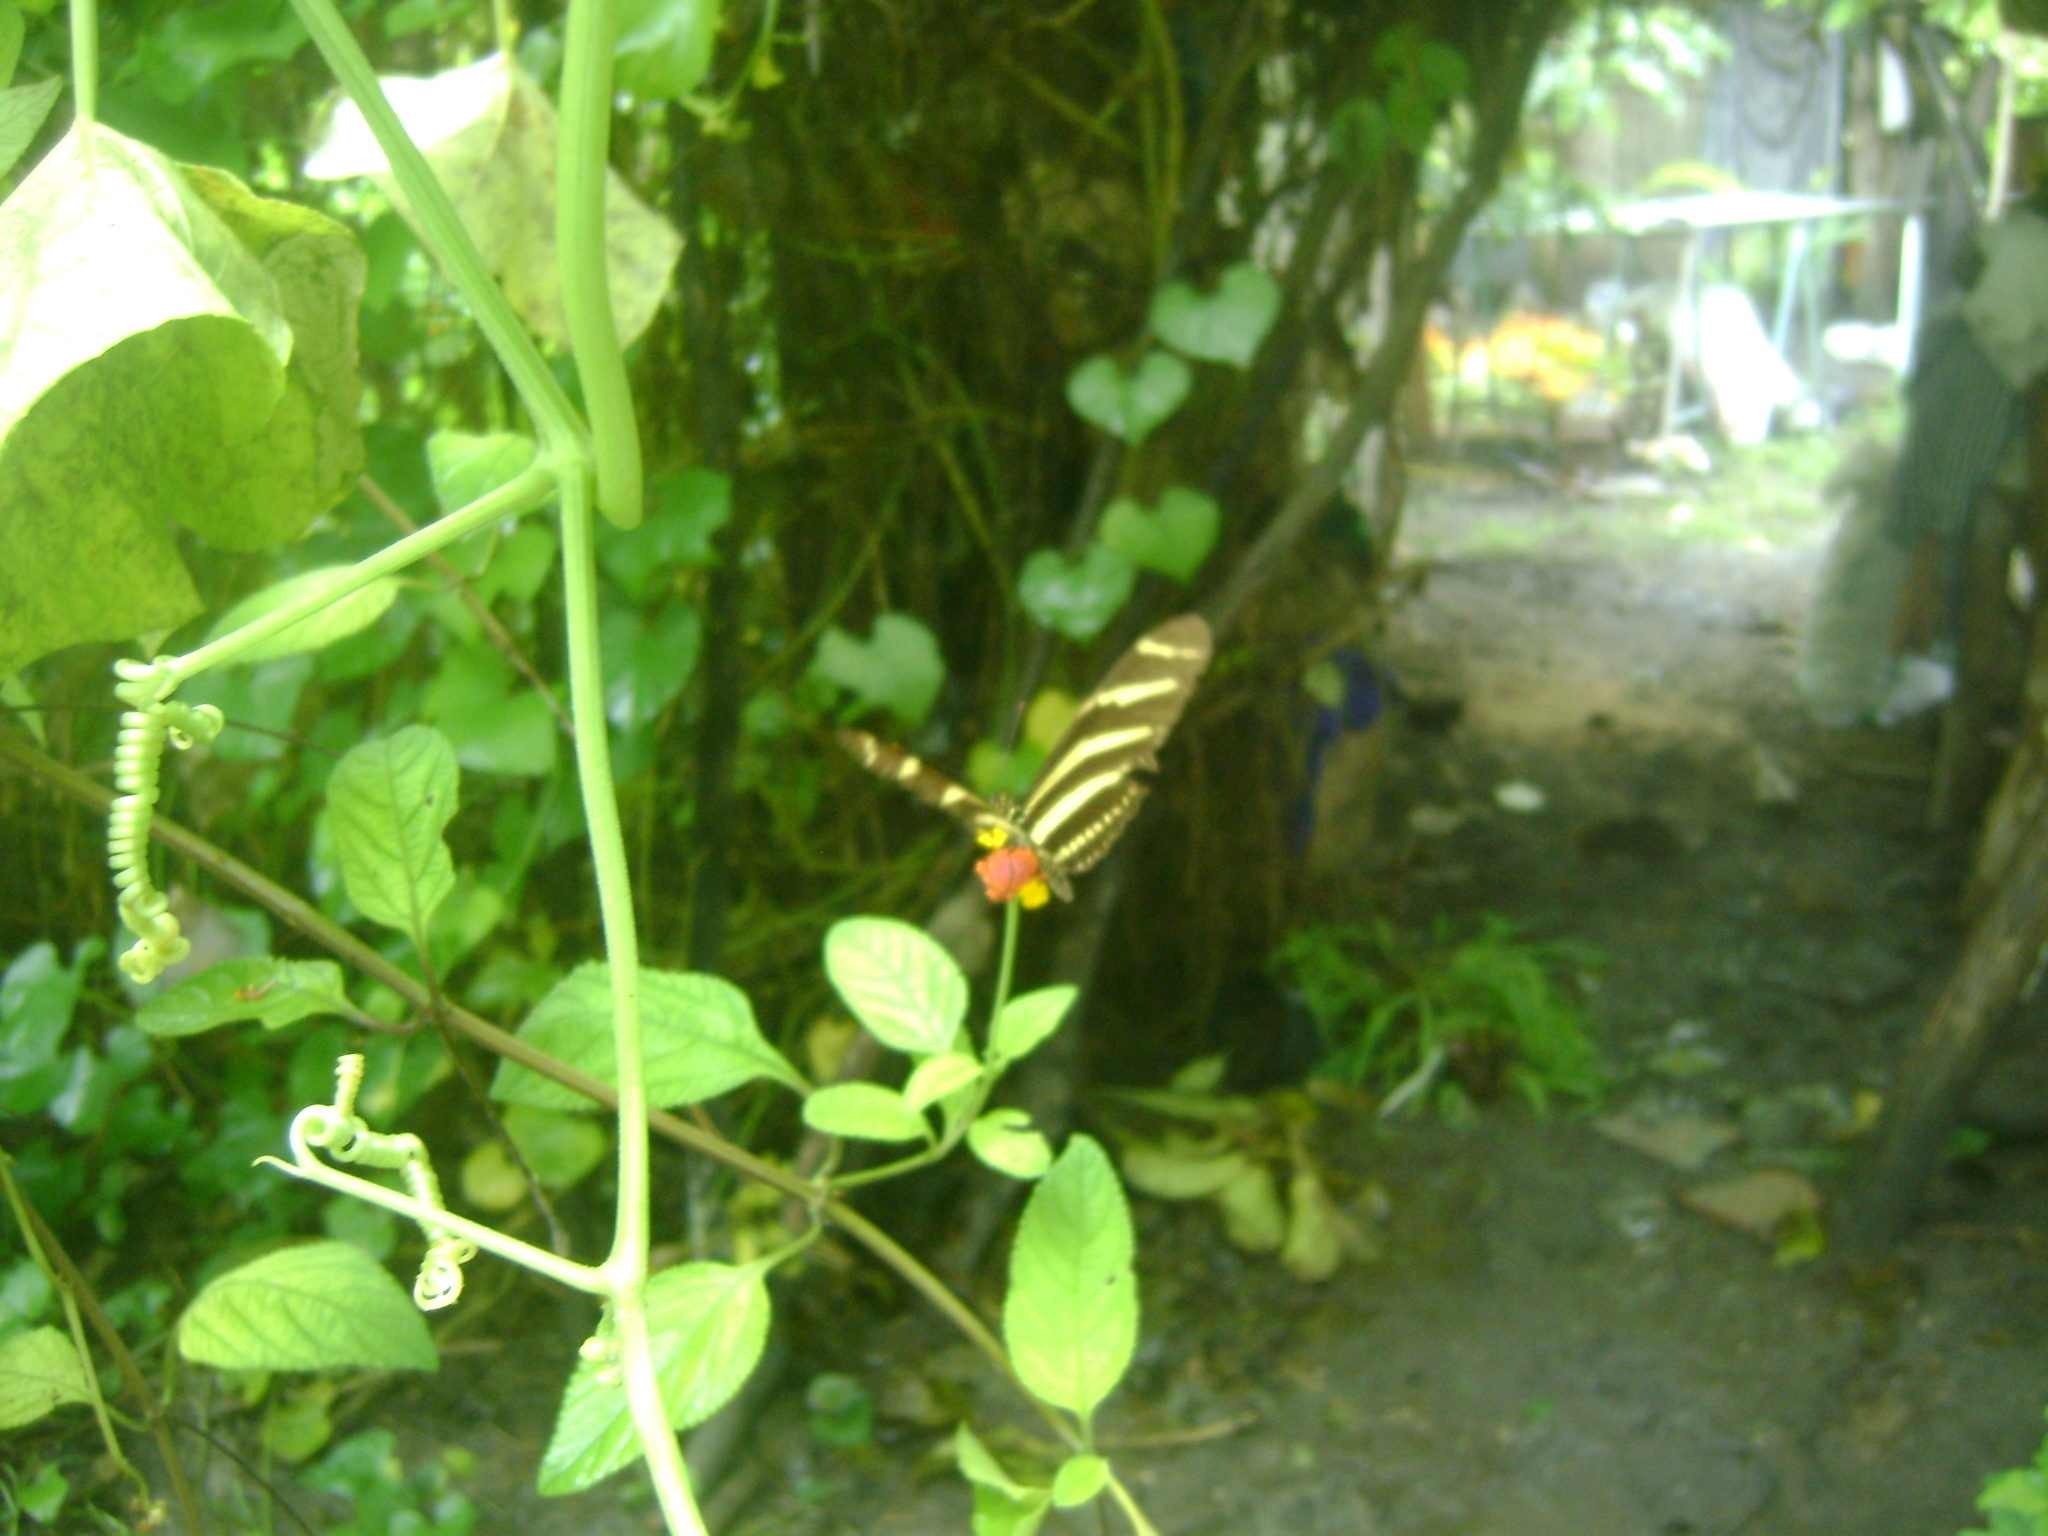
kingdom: Animalia
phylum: Arthropoda
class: Insecta
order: Lepidoptera
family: Nymphalidae
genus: Heliconius
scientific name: Heliconius charithonia
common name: Zebra long wing
